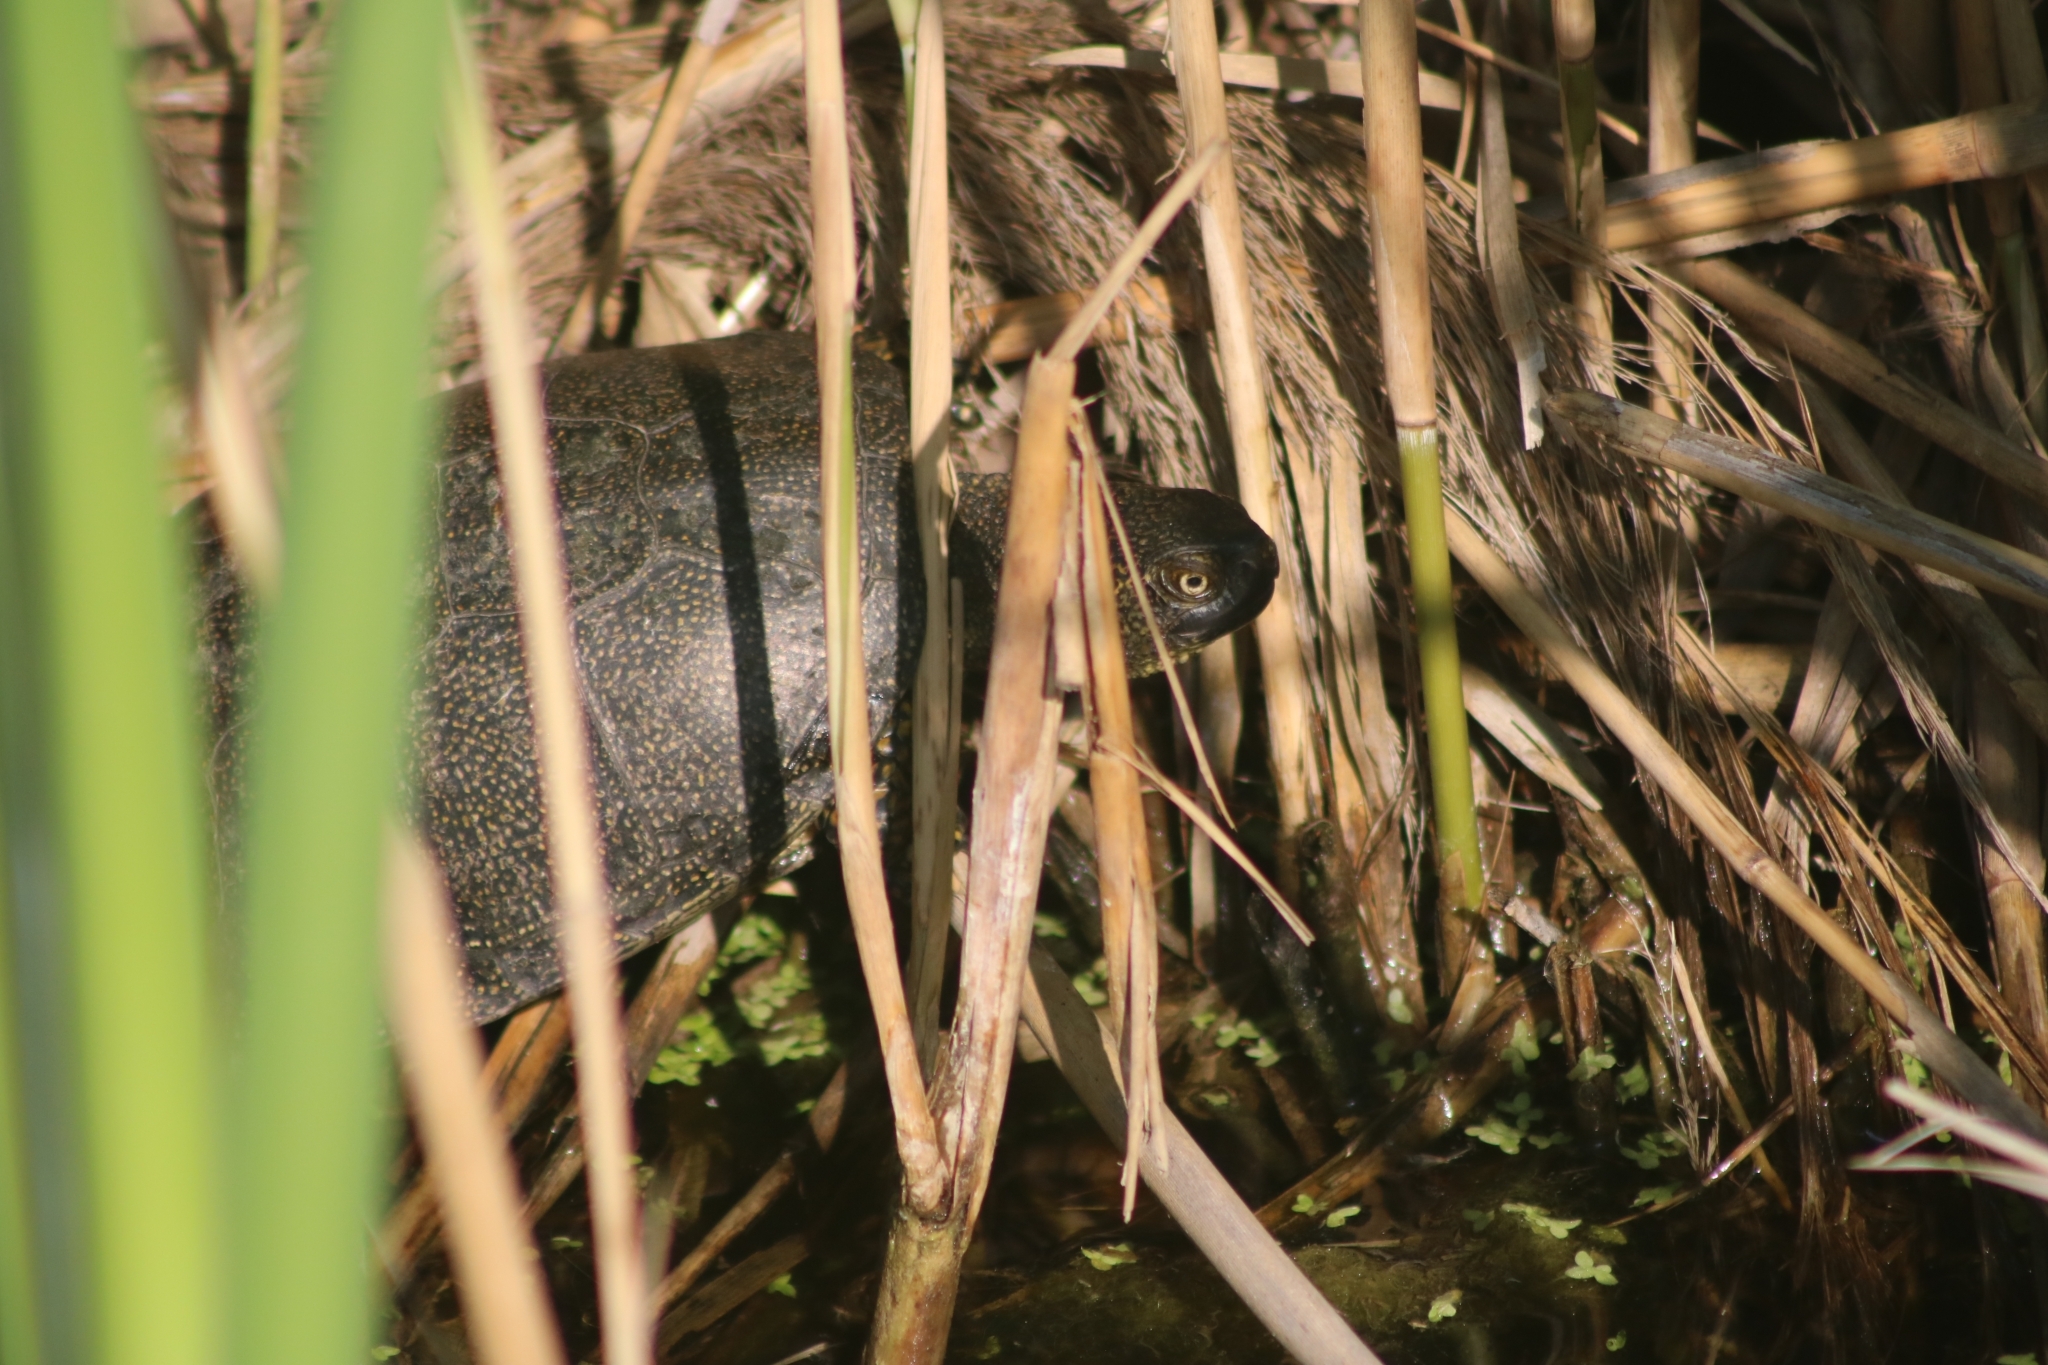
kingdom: Animalia
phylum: Chordata
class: Testudines
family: Emydidae
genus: Emys
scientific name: Emys orbicularis
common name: European pond turtle
